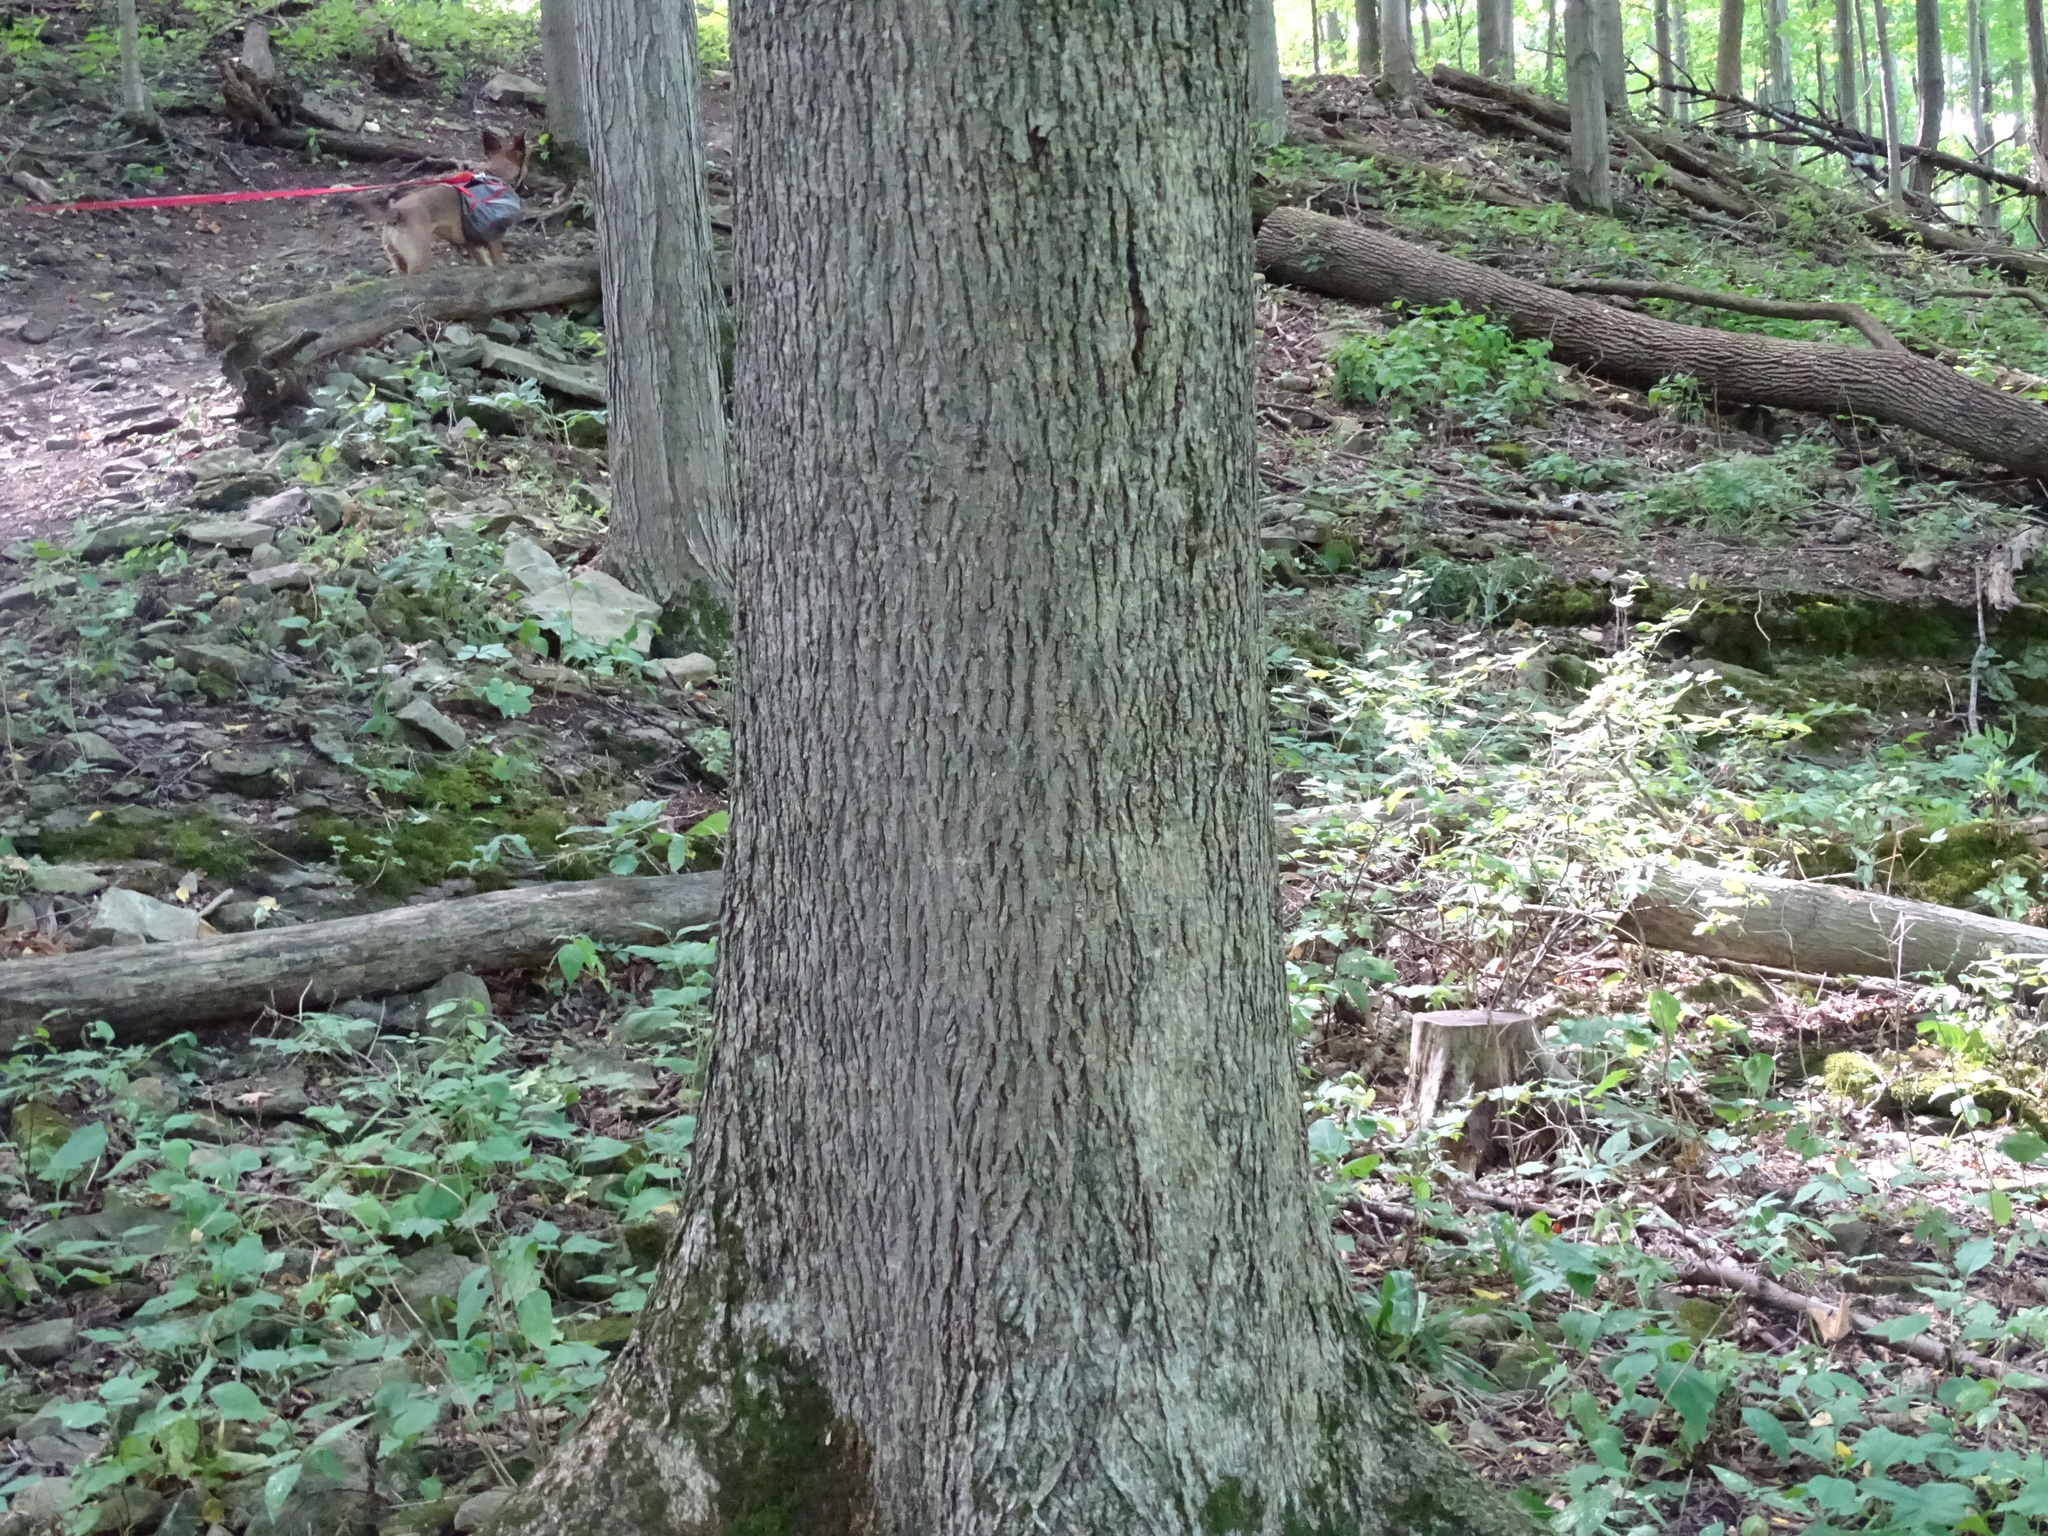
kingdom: Plantae
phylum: Tracheophyta
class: Magnoliopsida
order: Fagales
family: Juglandaceae
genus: Carya
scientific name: Carya cordiformis
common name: Bitternut hickory
